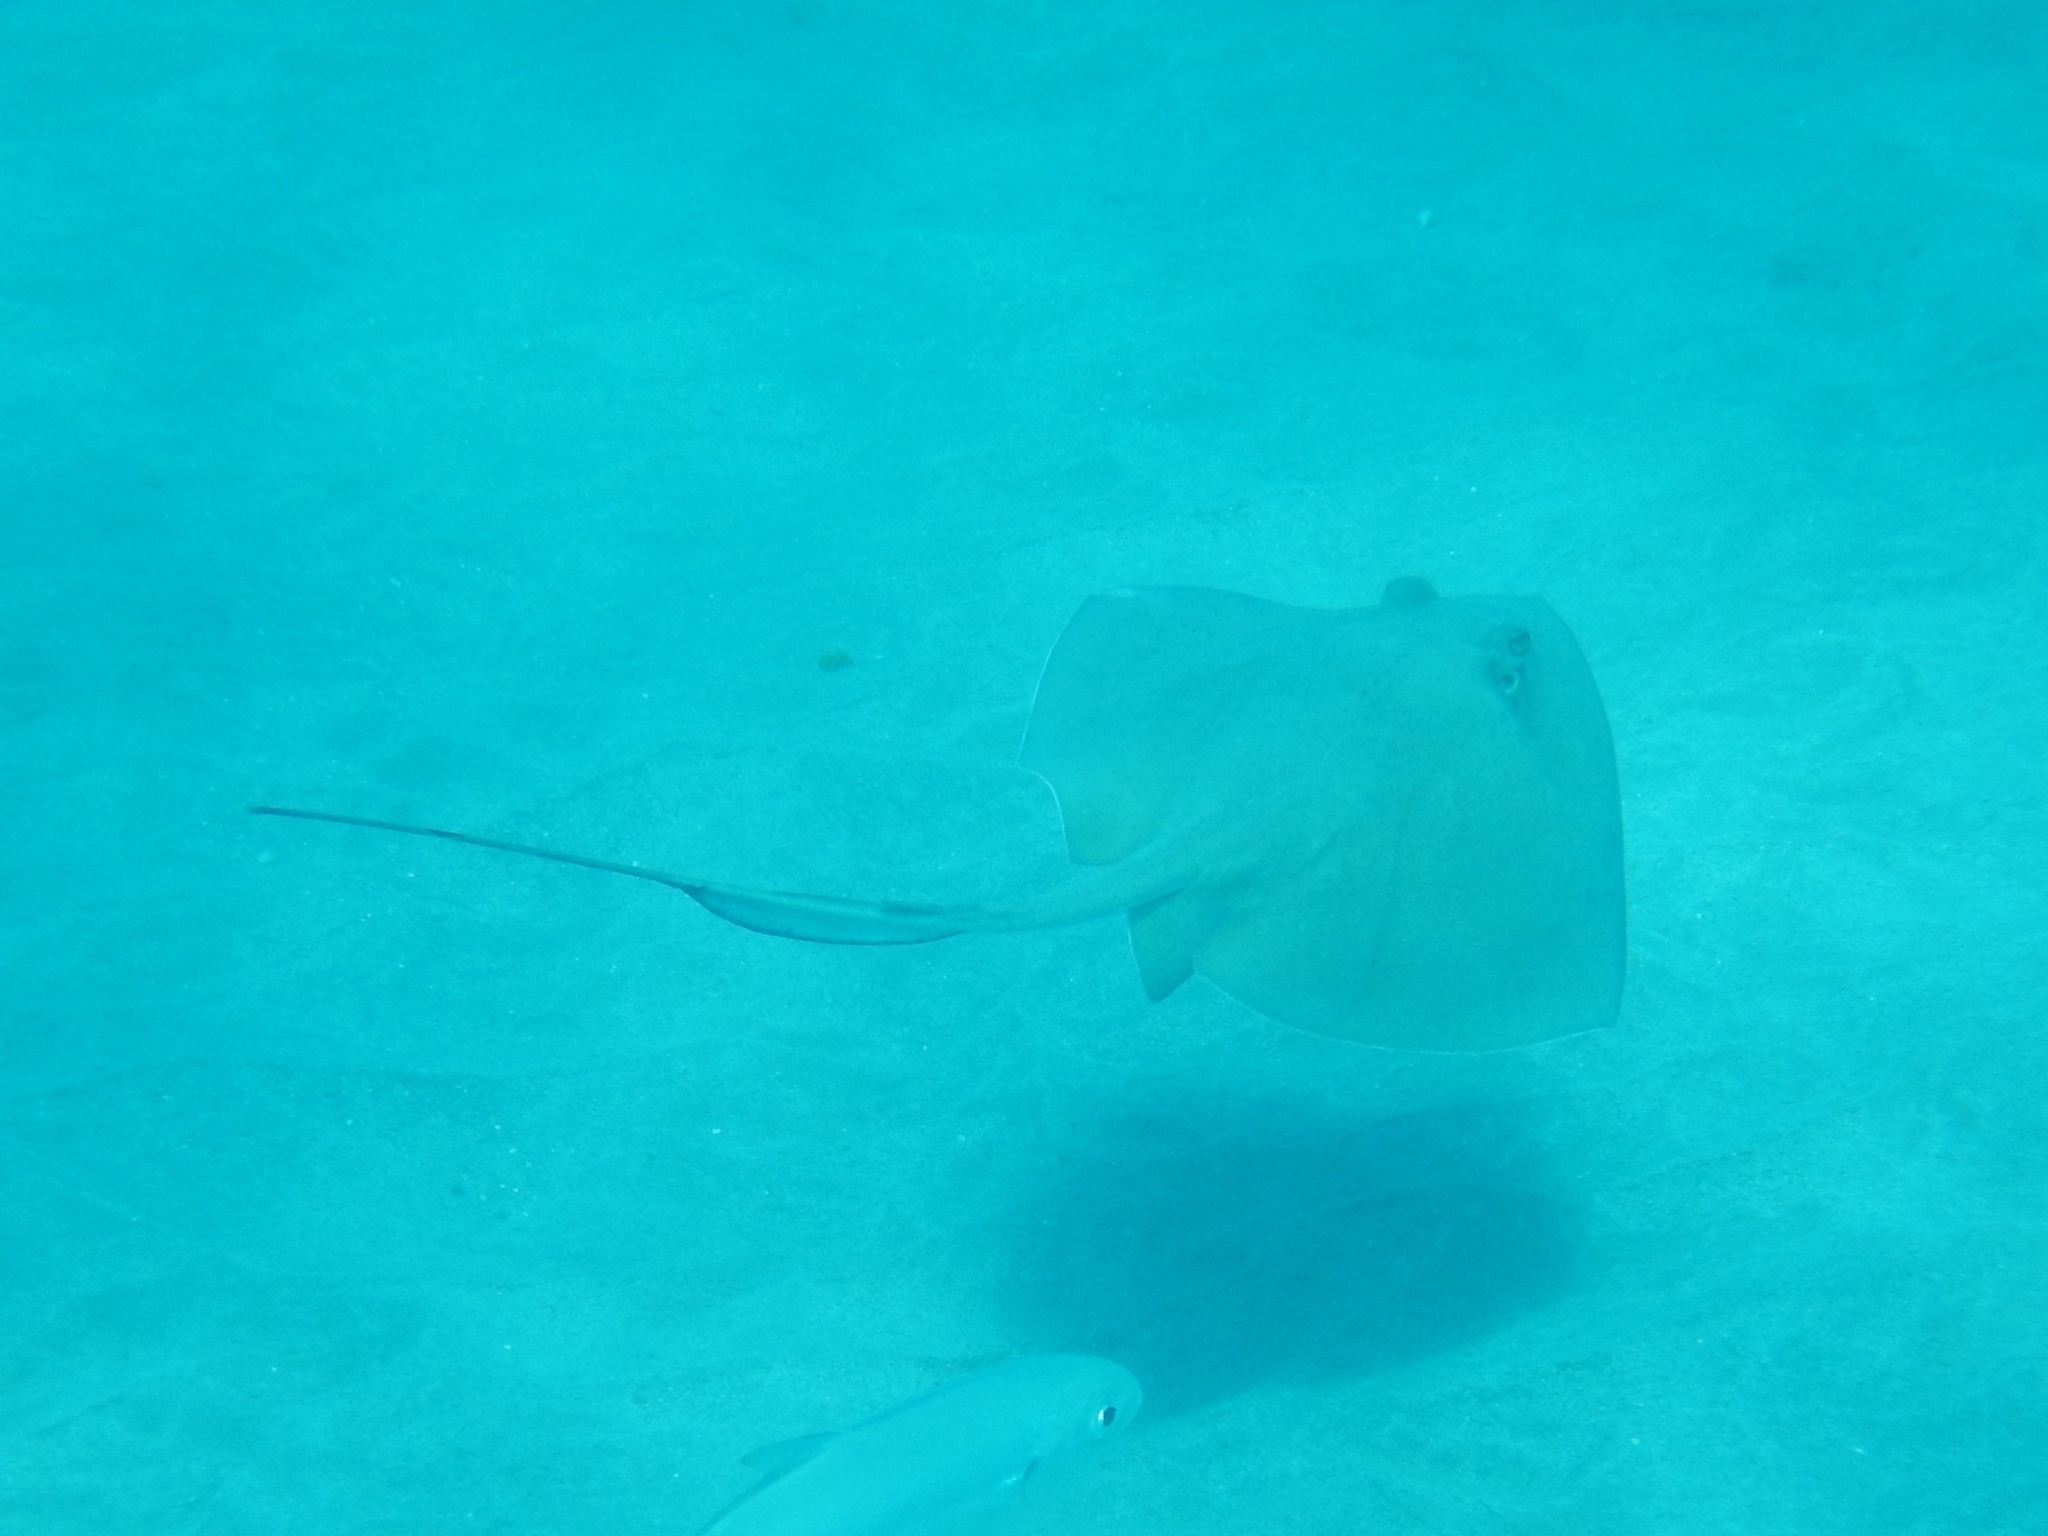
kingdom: Animalia
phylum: Chordata
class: Elasmobranchii
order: Myliobatiformes
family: Dasyatidae
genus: Hypanus
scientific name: Hypanus americanus
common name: Southern stingray
